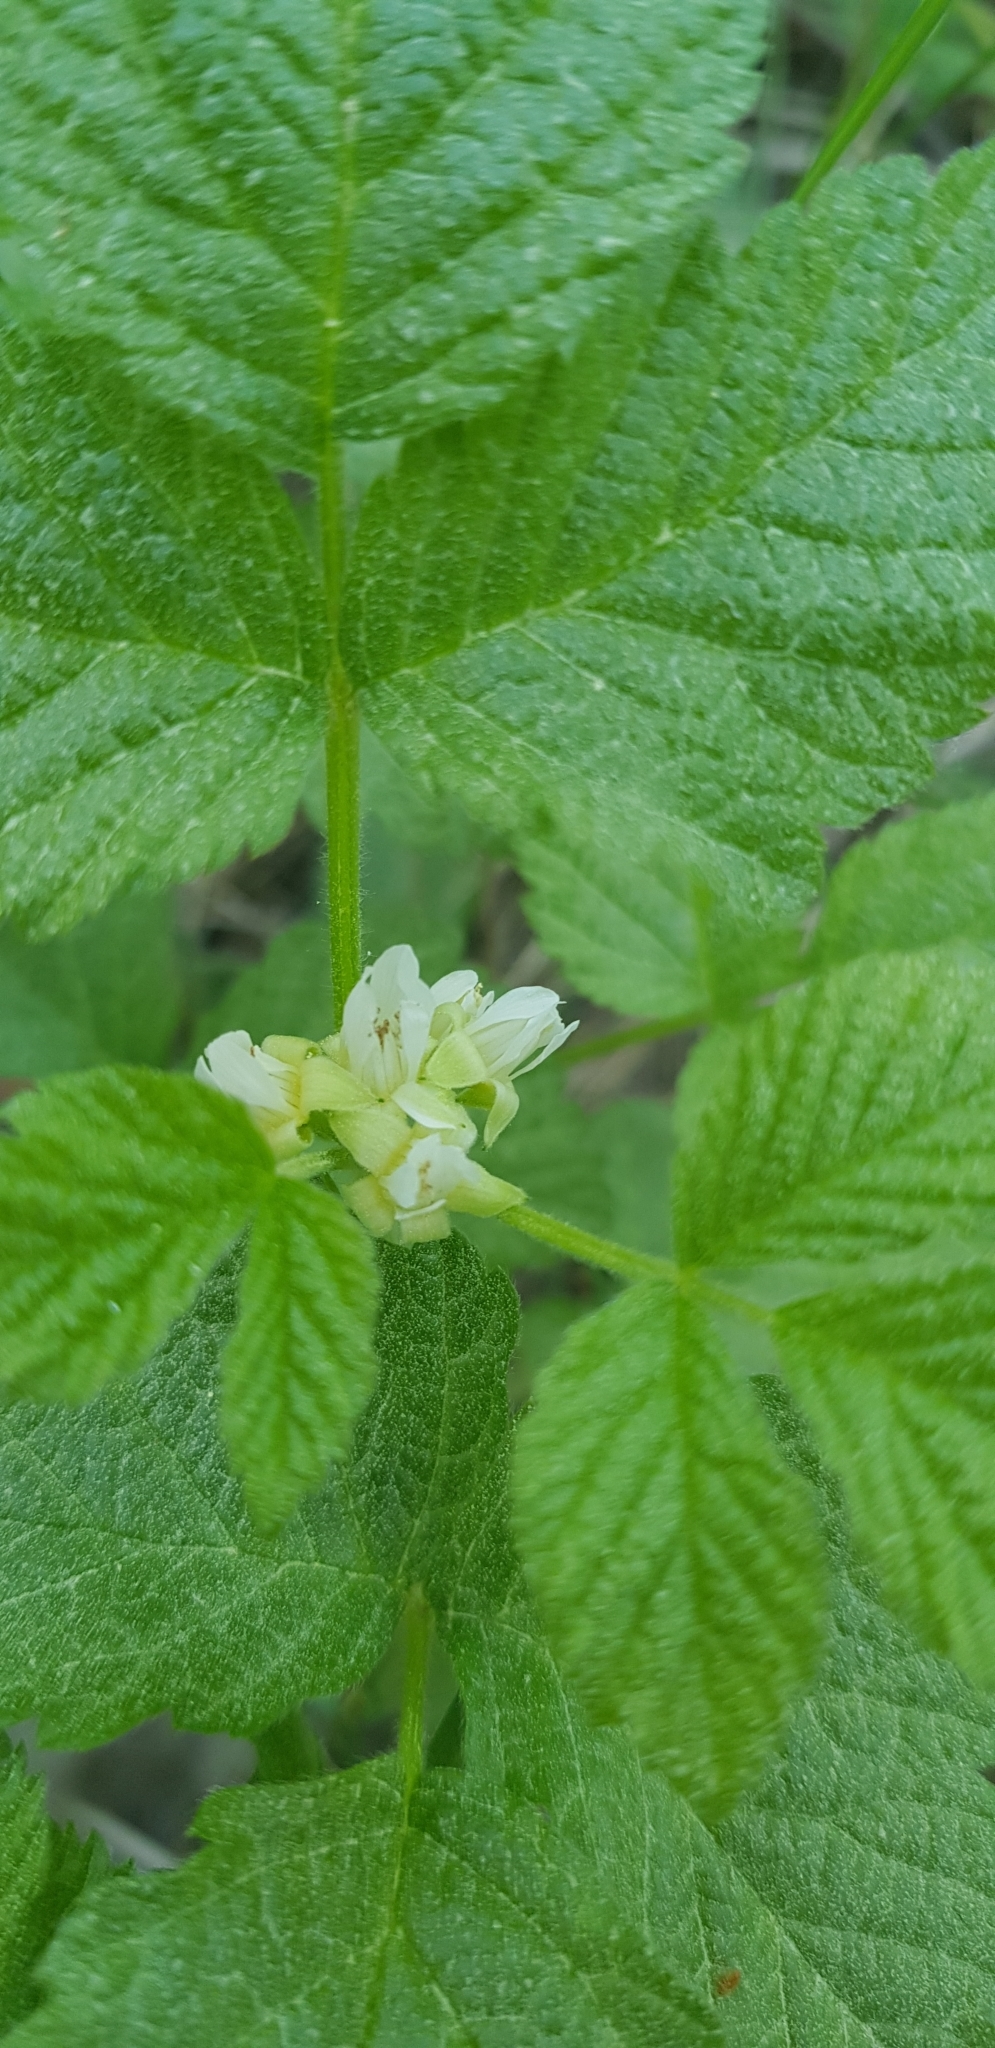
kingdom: Plantae
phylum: Tracheophyta
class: Magnoliopsida
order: Rosales
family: Rosaceae
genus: Rubus
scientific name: Rubus saxatilis
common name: Stone bramble
